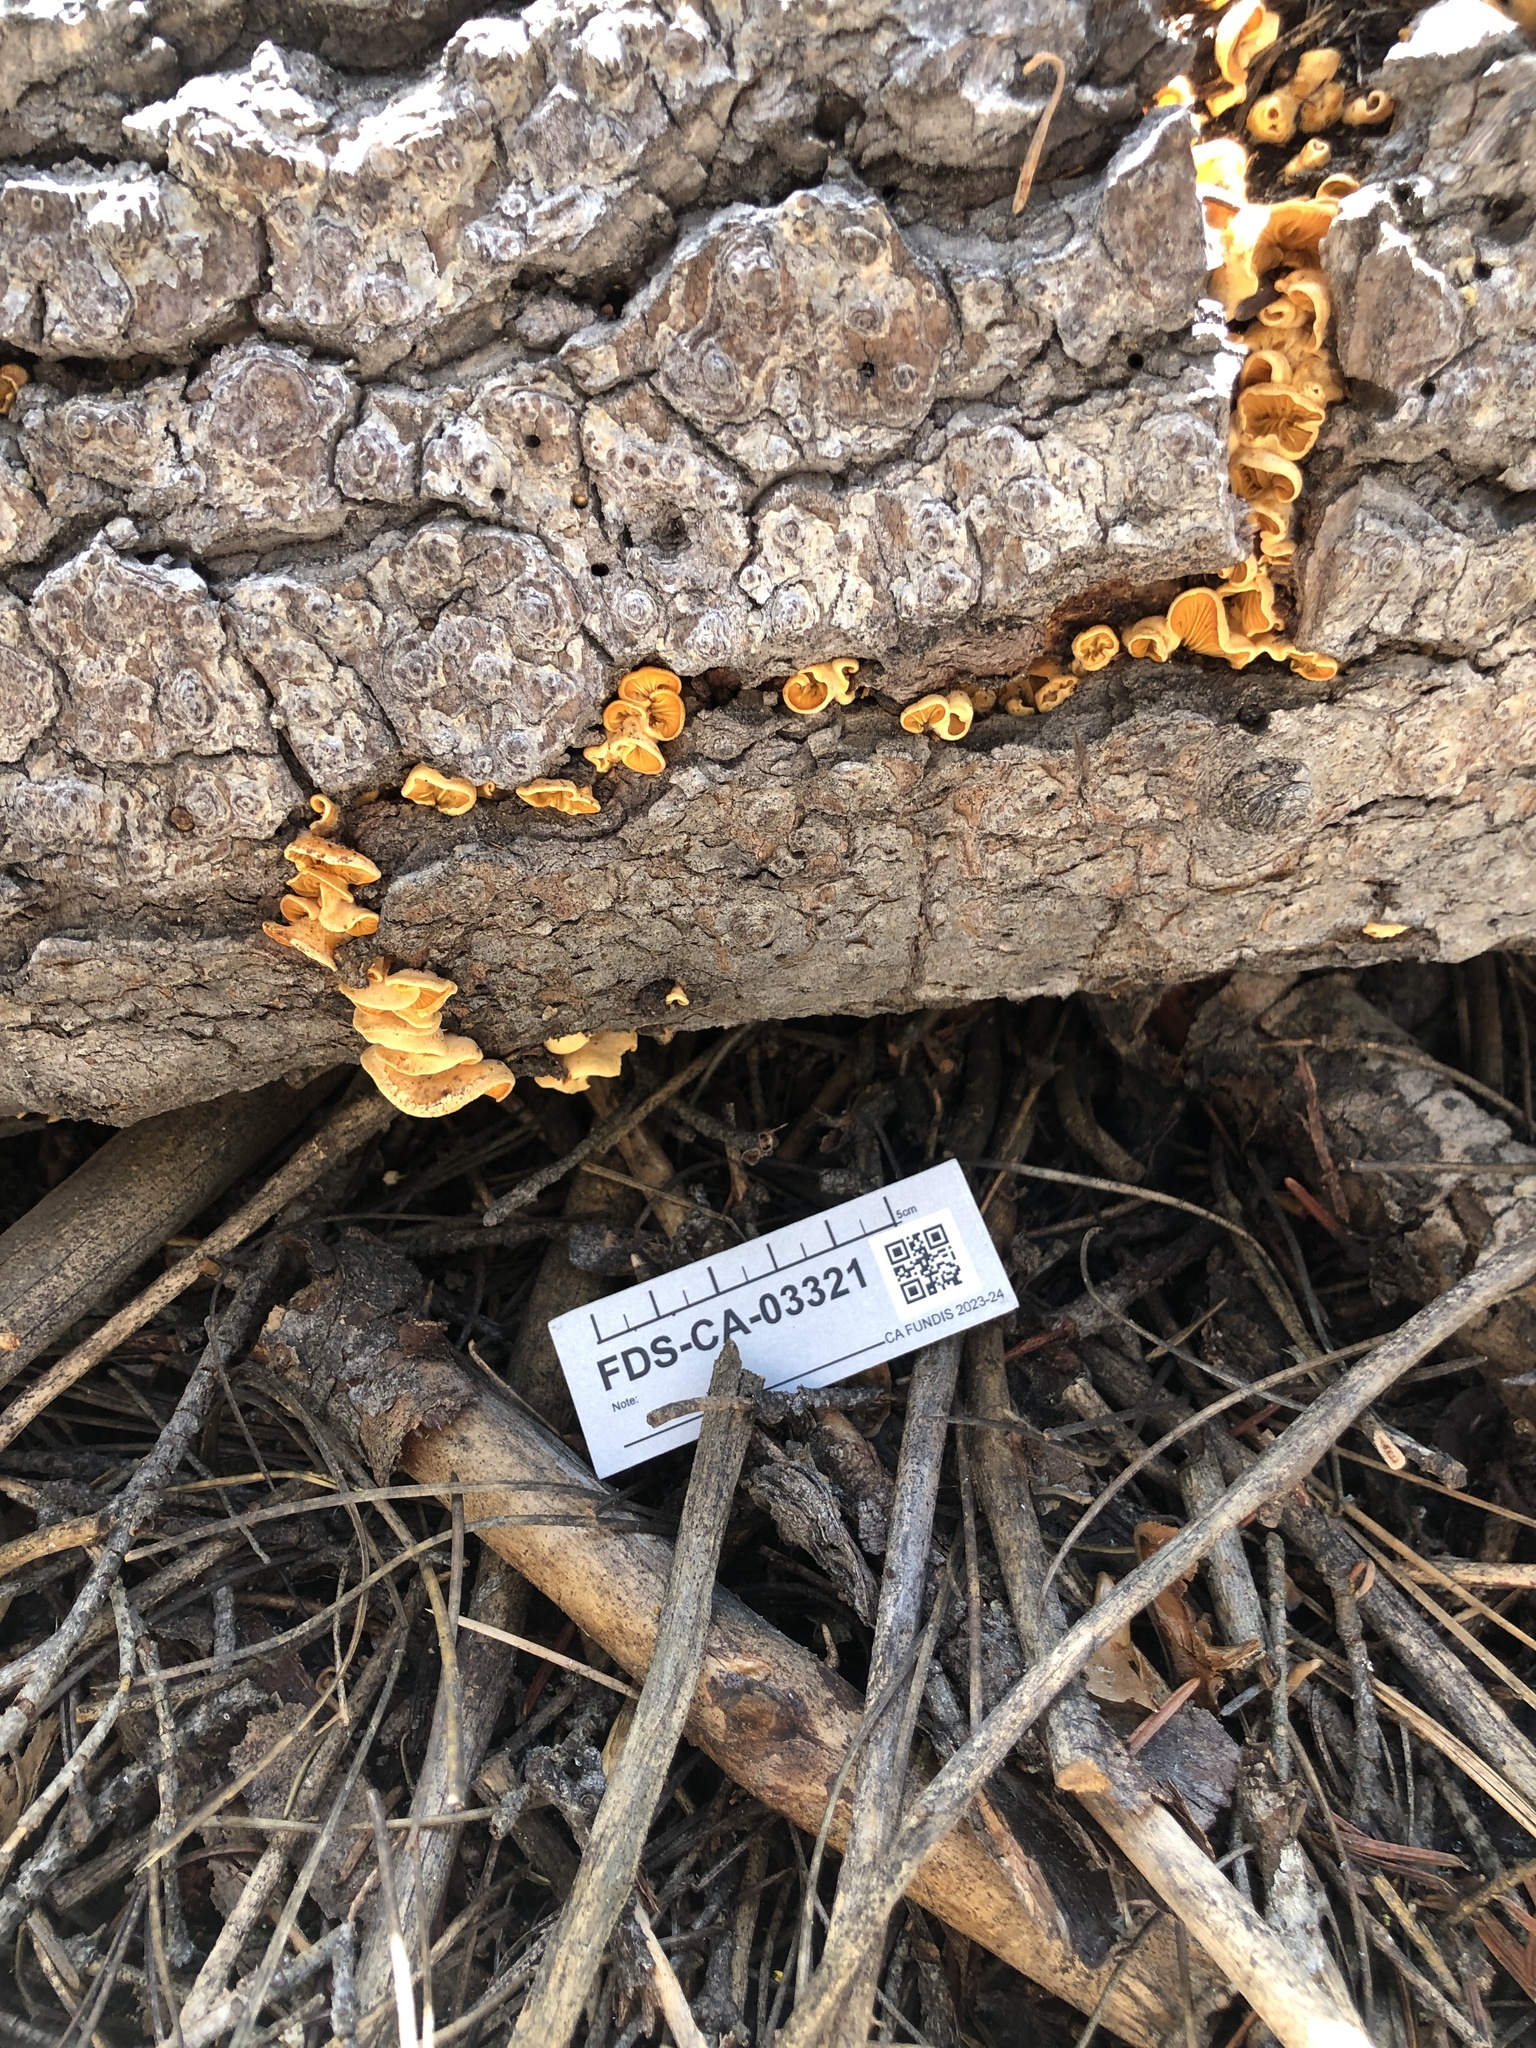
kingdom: Fungi
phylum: Basidiomycota
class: Agaricomycetes
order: Agaricales
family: Phyllotopsidaceae
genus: Phyllotopsis
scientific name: Phyllotopsis nidulans
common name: Orange mock oyster
